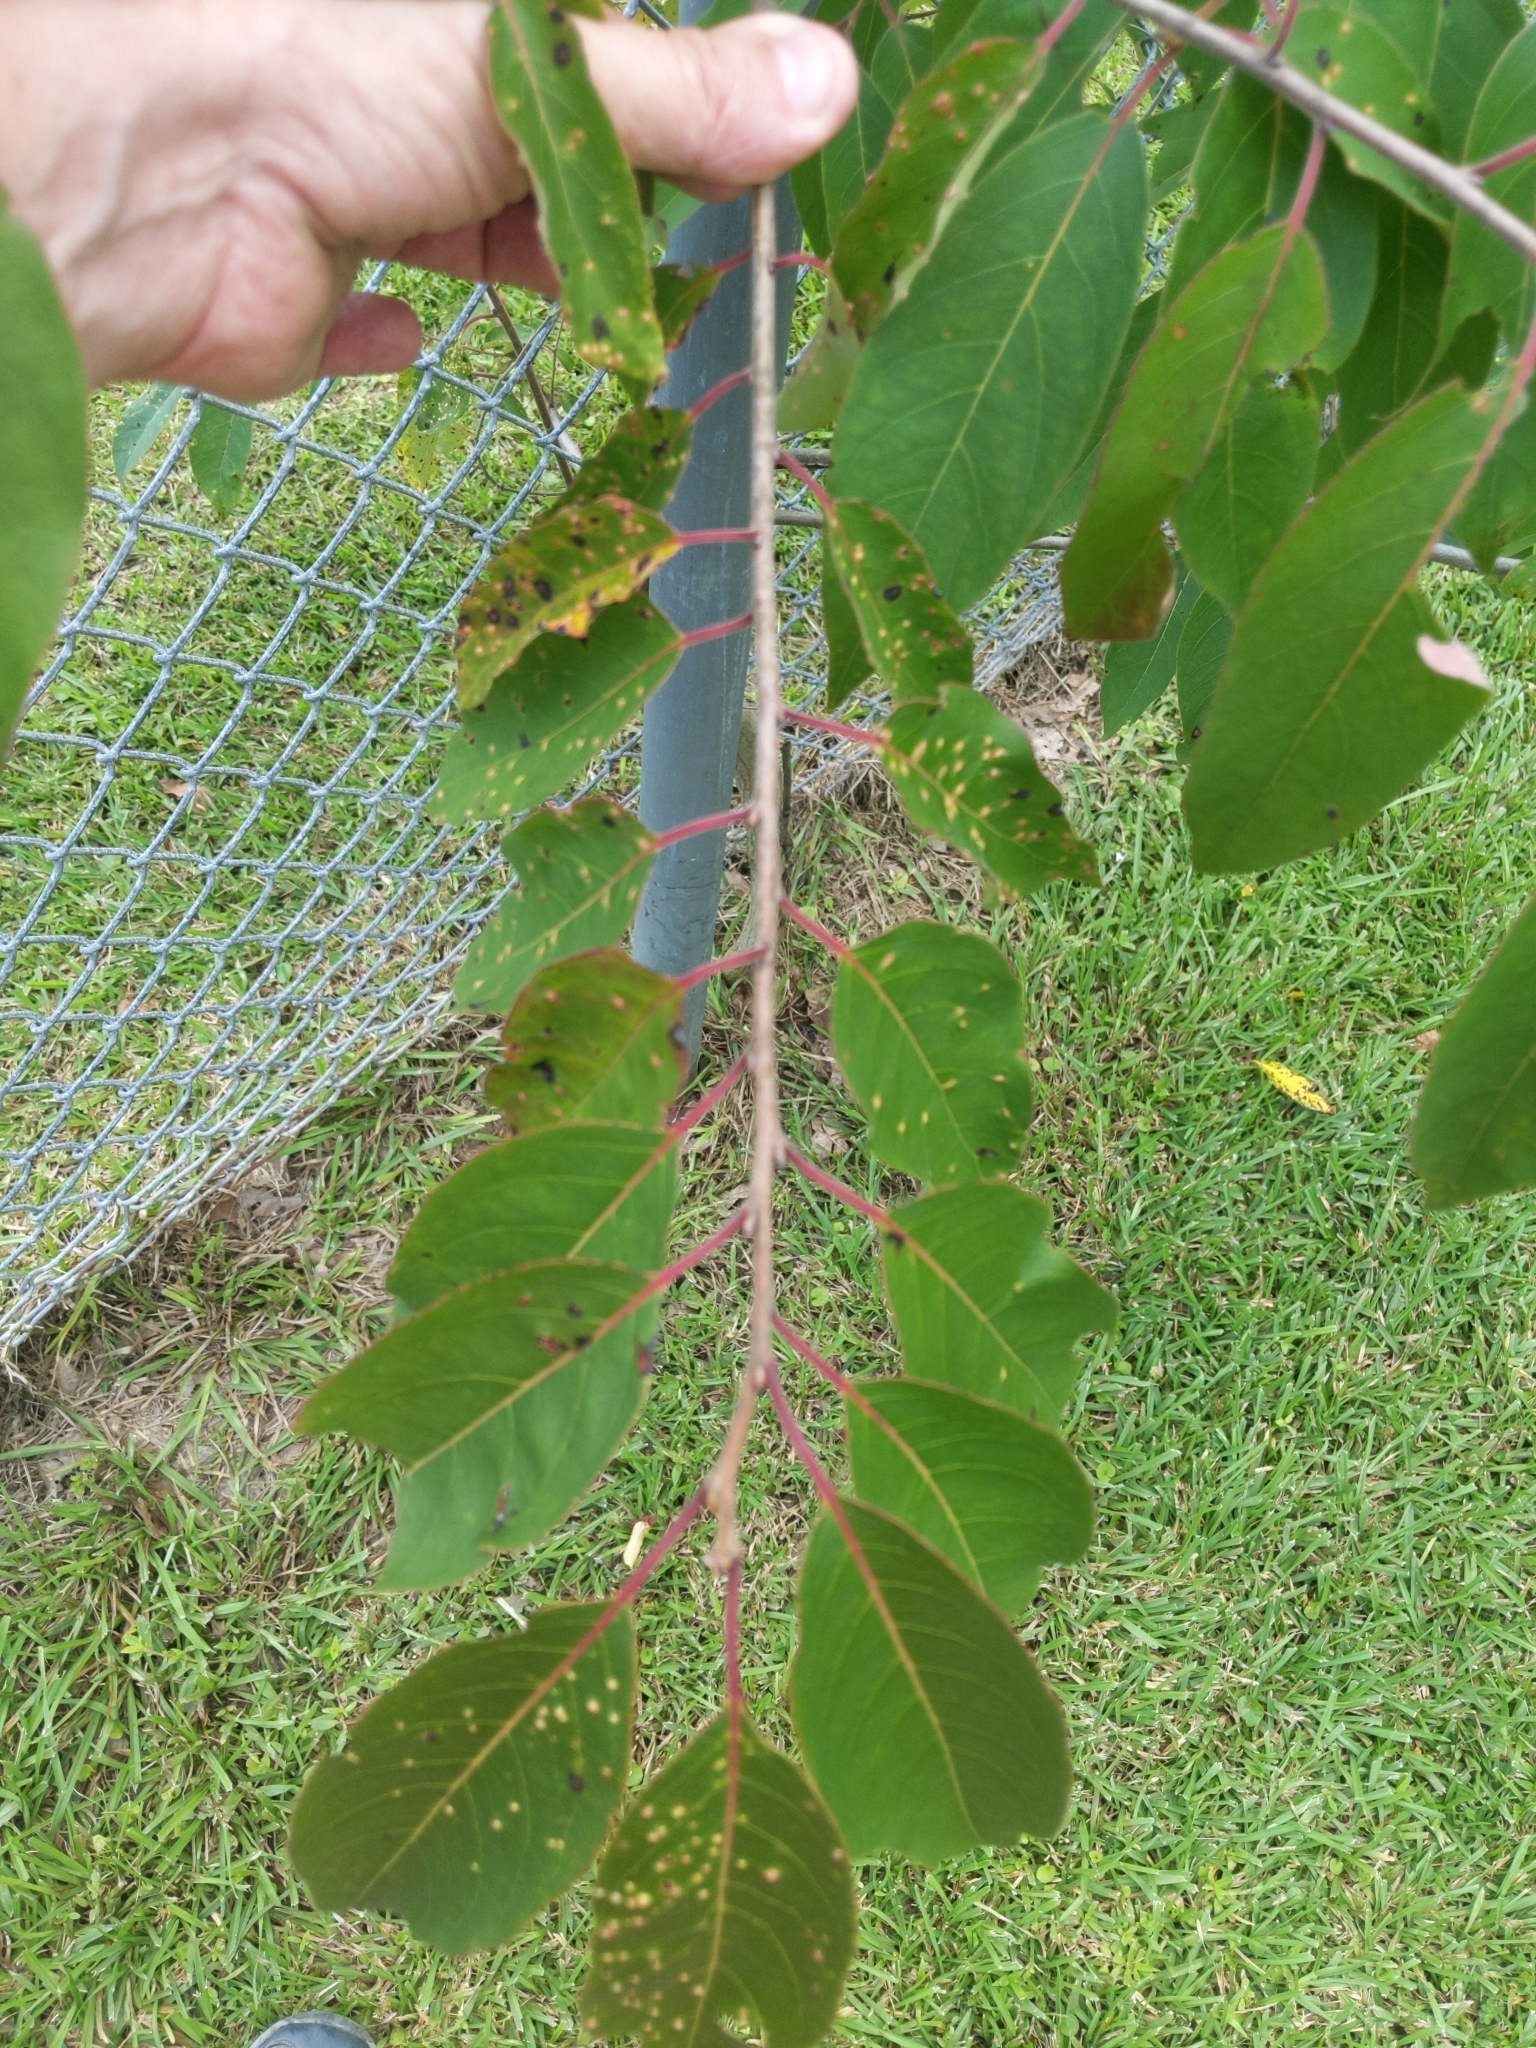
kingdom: Plantae
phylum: Tracheophyta
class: Magnoliopsida
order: Ericales
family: Ebenaceae
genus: Diospyros
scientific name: Diospyros virginiana
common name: Persimmon
